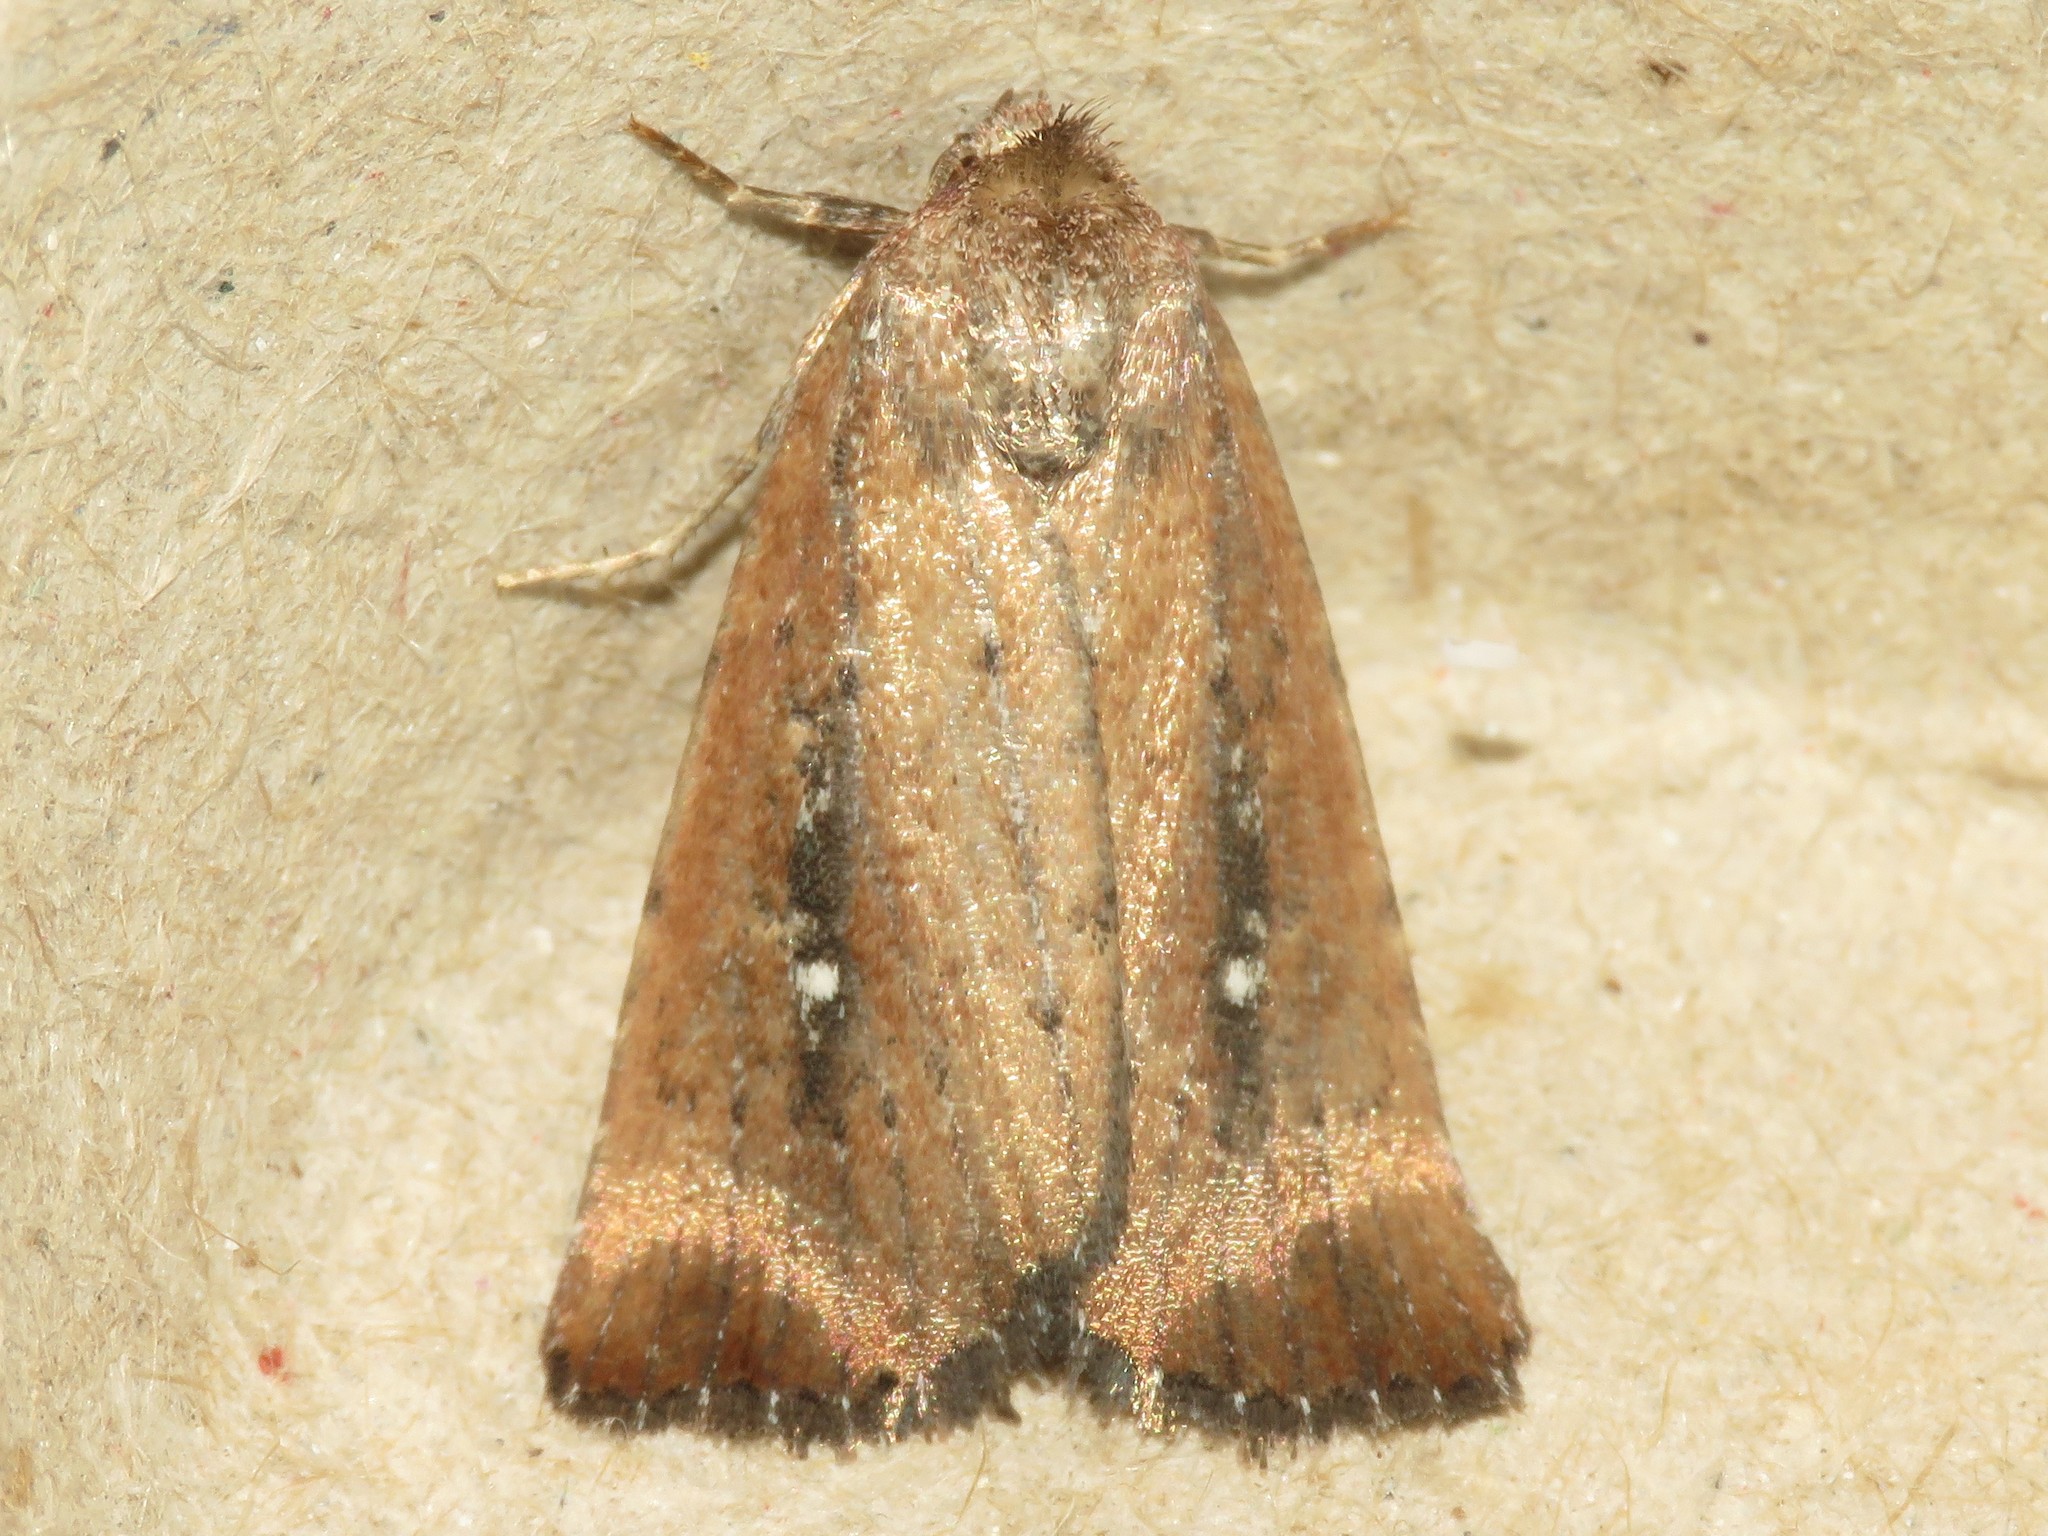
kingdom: Animalia
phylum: Arthropoda
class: Insecta
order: Lepidoptera
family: Noctuidae
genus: Condica
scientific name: Condica videns
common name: White-dotted groundling
